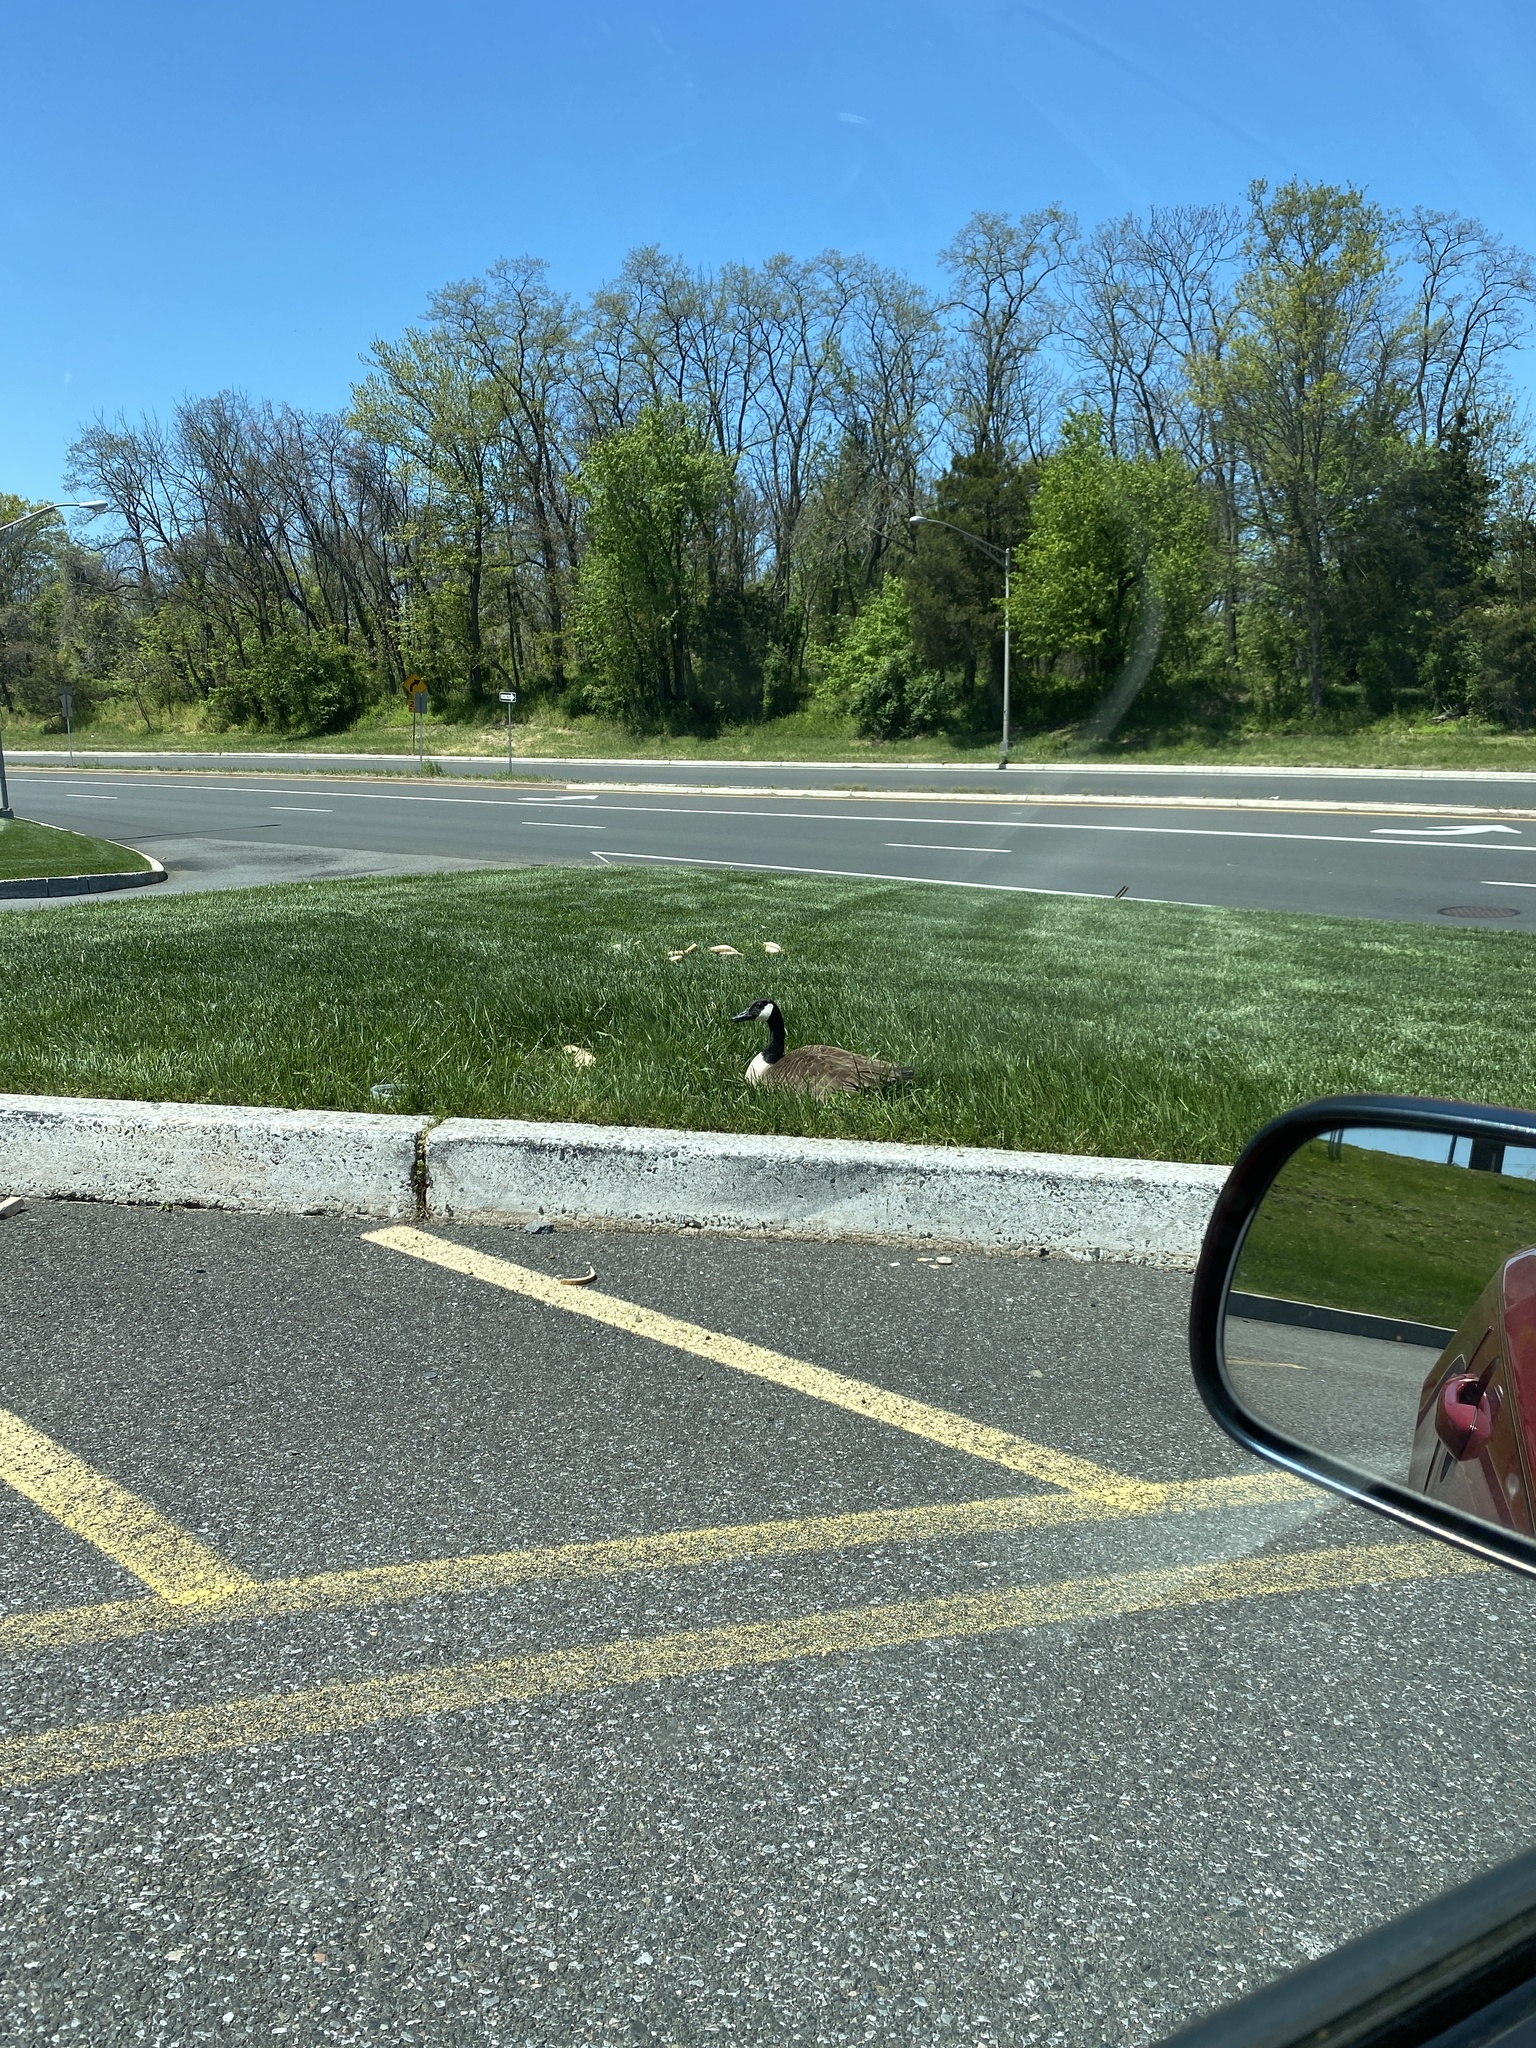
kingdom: Animalia
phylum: Chordata
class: Aves
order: Anseriformes
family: Anatidae
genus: Branta
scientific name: Branta canadensis
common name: Canada goose
